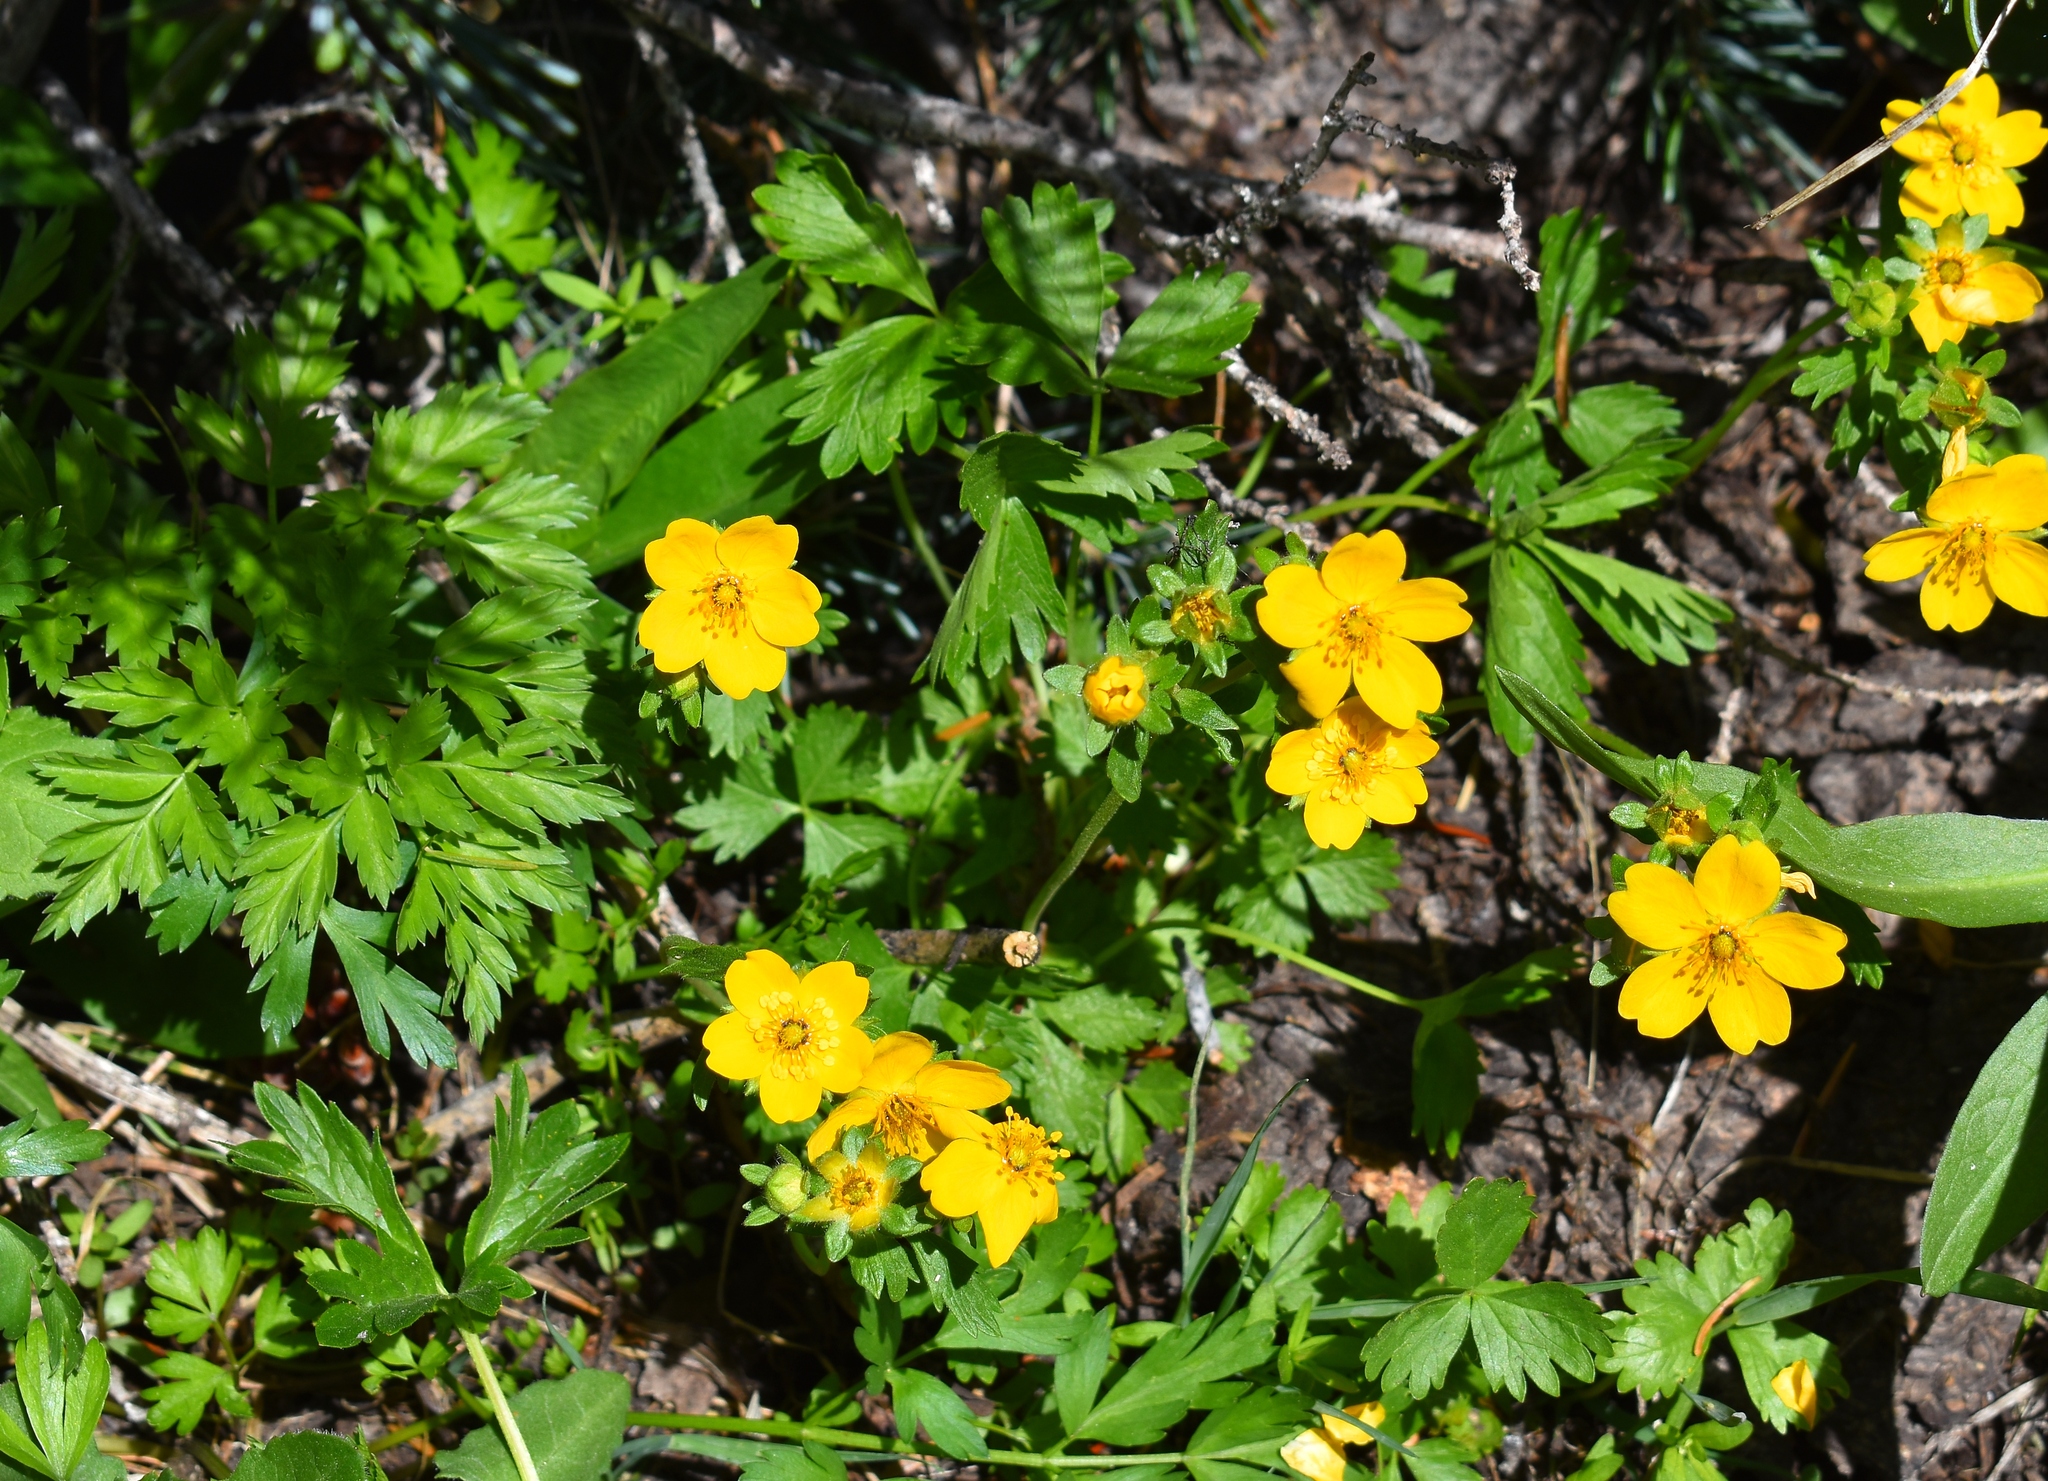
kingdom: Plantae
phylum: Tracheophyta
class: Magnoliopsida
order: Rosales
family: Rosaceae
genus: Potentilla
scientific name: Potentilla flabellifolia
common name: Mount rainier cinquefoil
